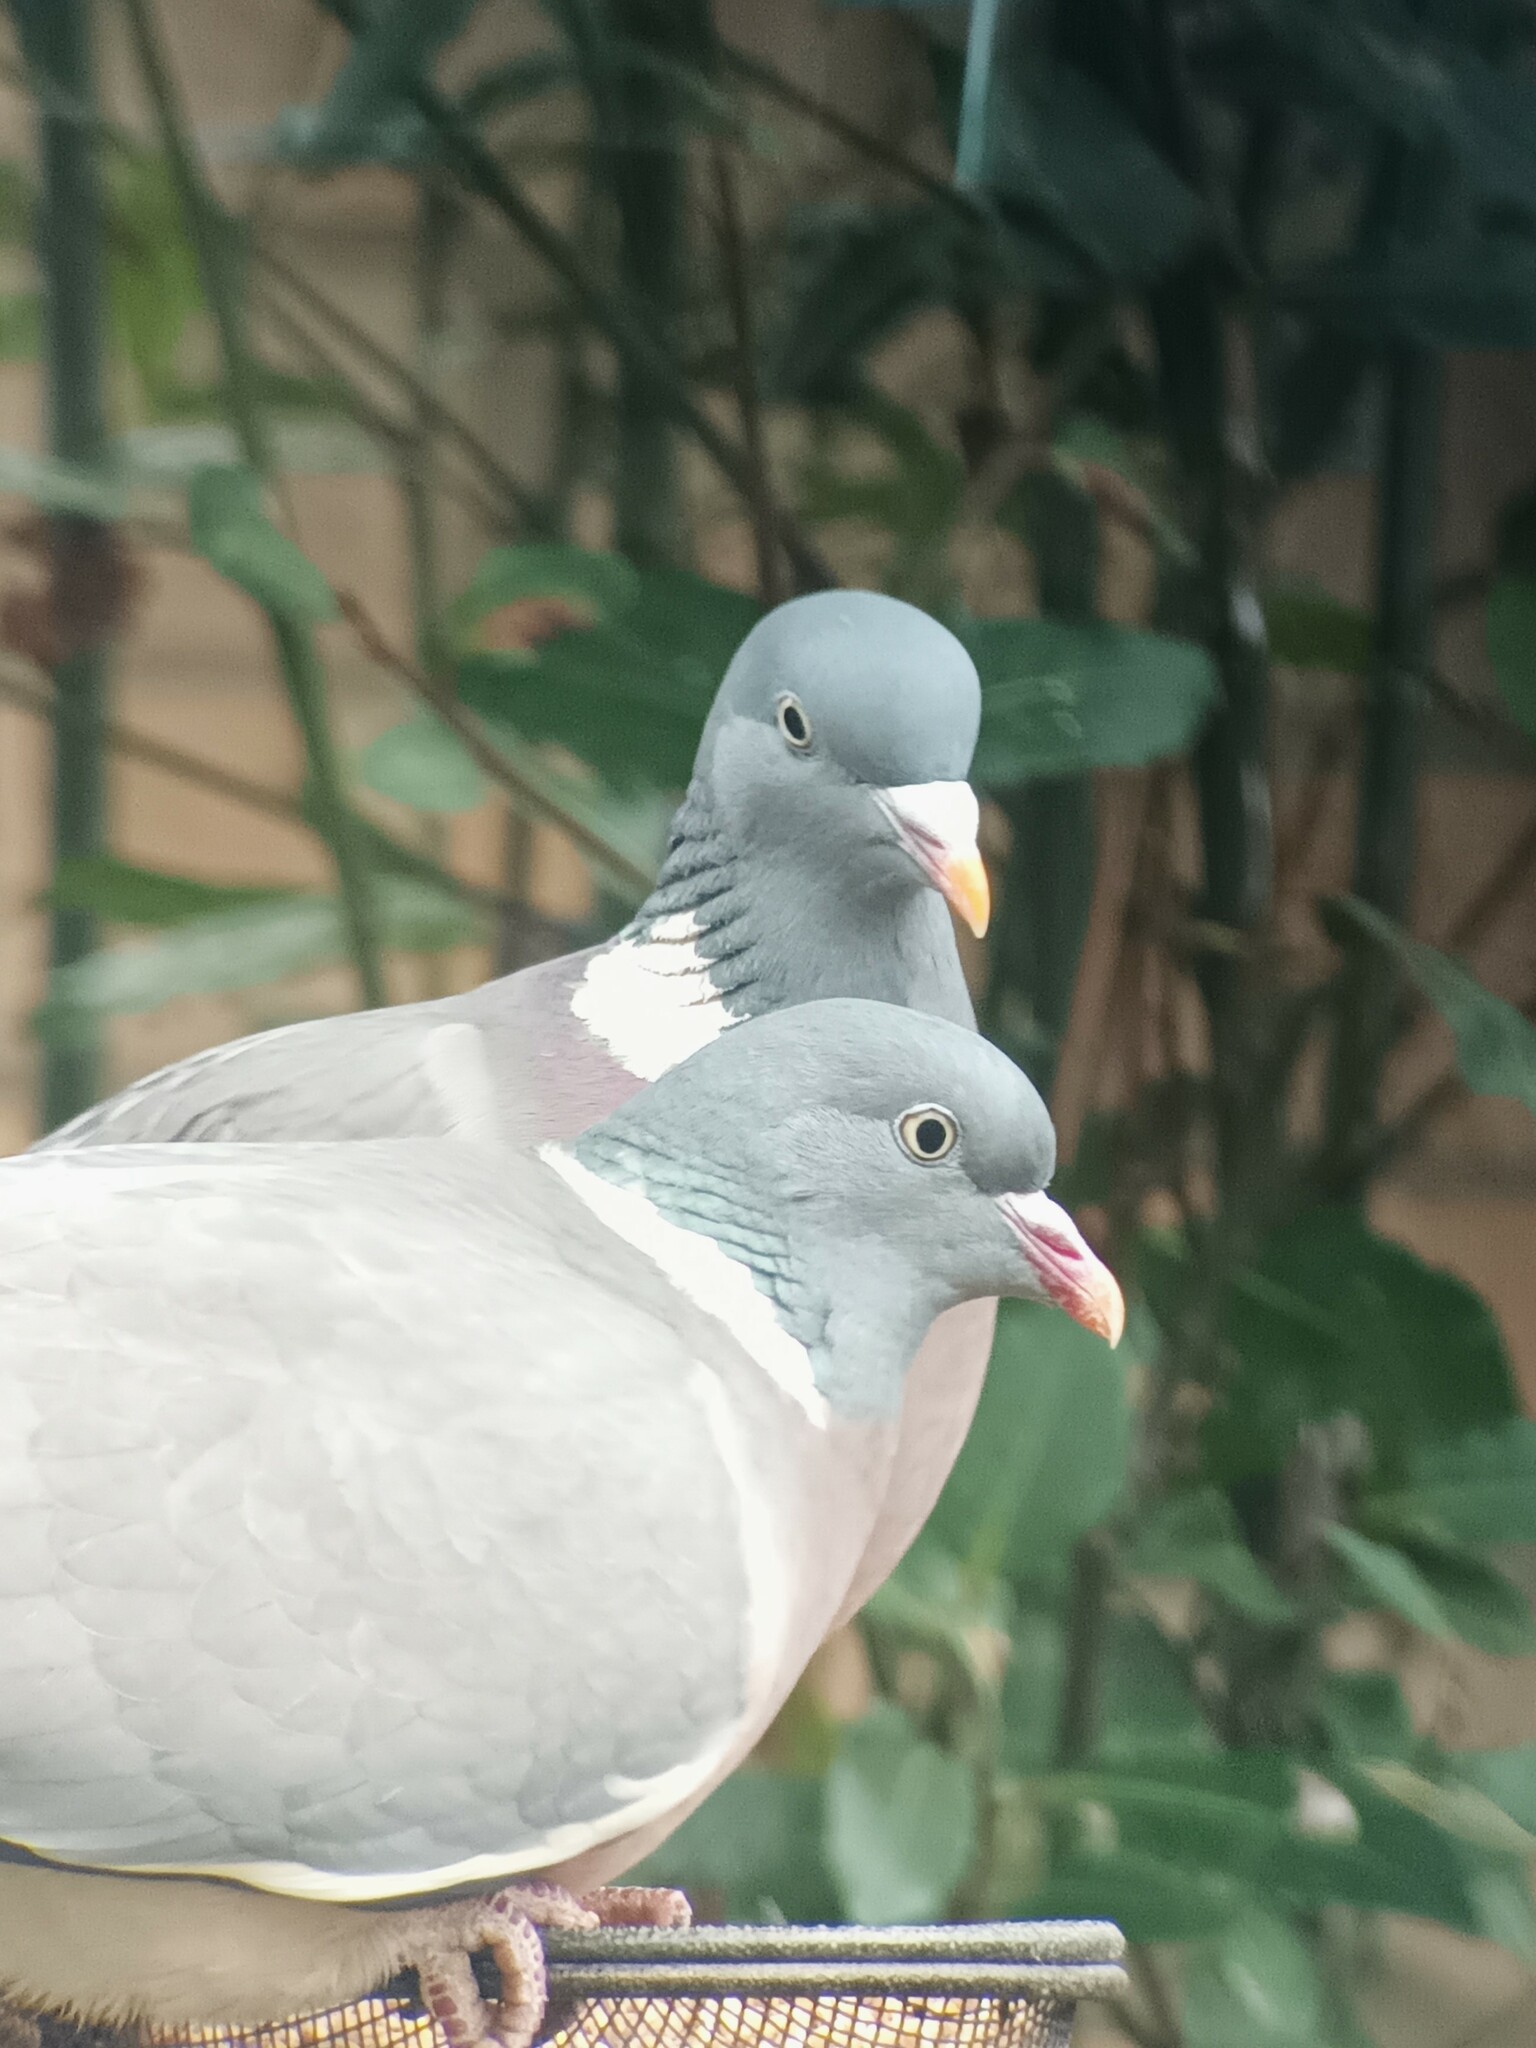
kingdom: Animalia
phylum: Chordata
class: Aves
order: Columbiformes
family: Columbidae
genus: Columba
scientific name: Columba palumbus
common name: Common wood pigeon
